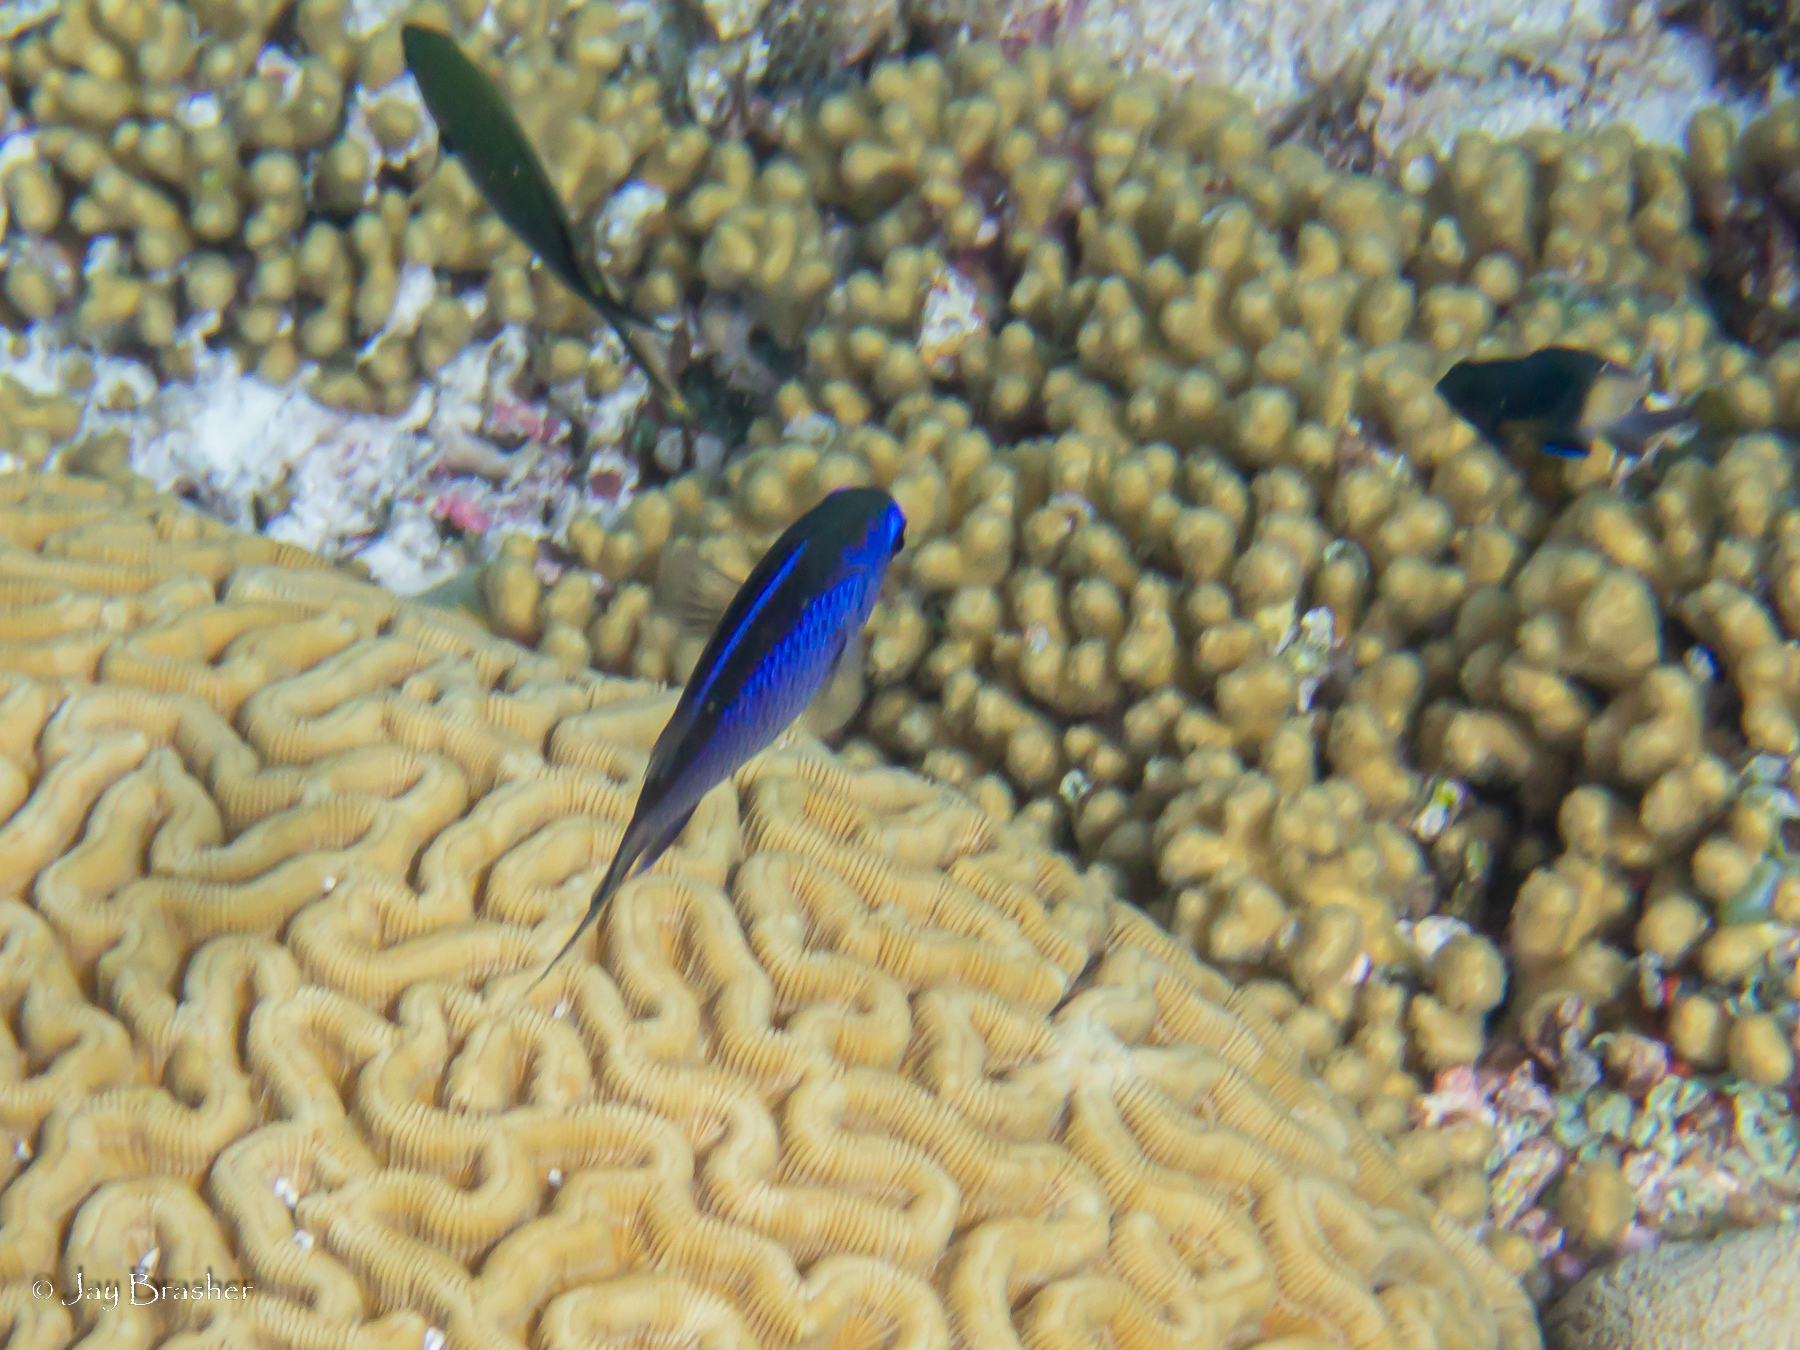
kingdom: Animalia
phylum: Chordata
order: Perciformes
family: Pomacentridae
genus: Chromis
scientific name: Chromis cyanea
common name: Blue chromis
